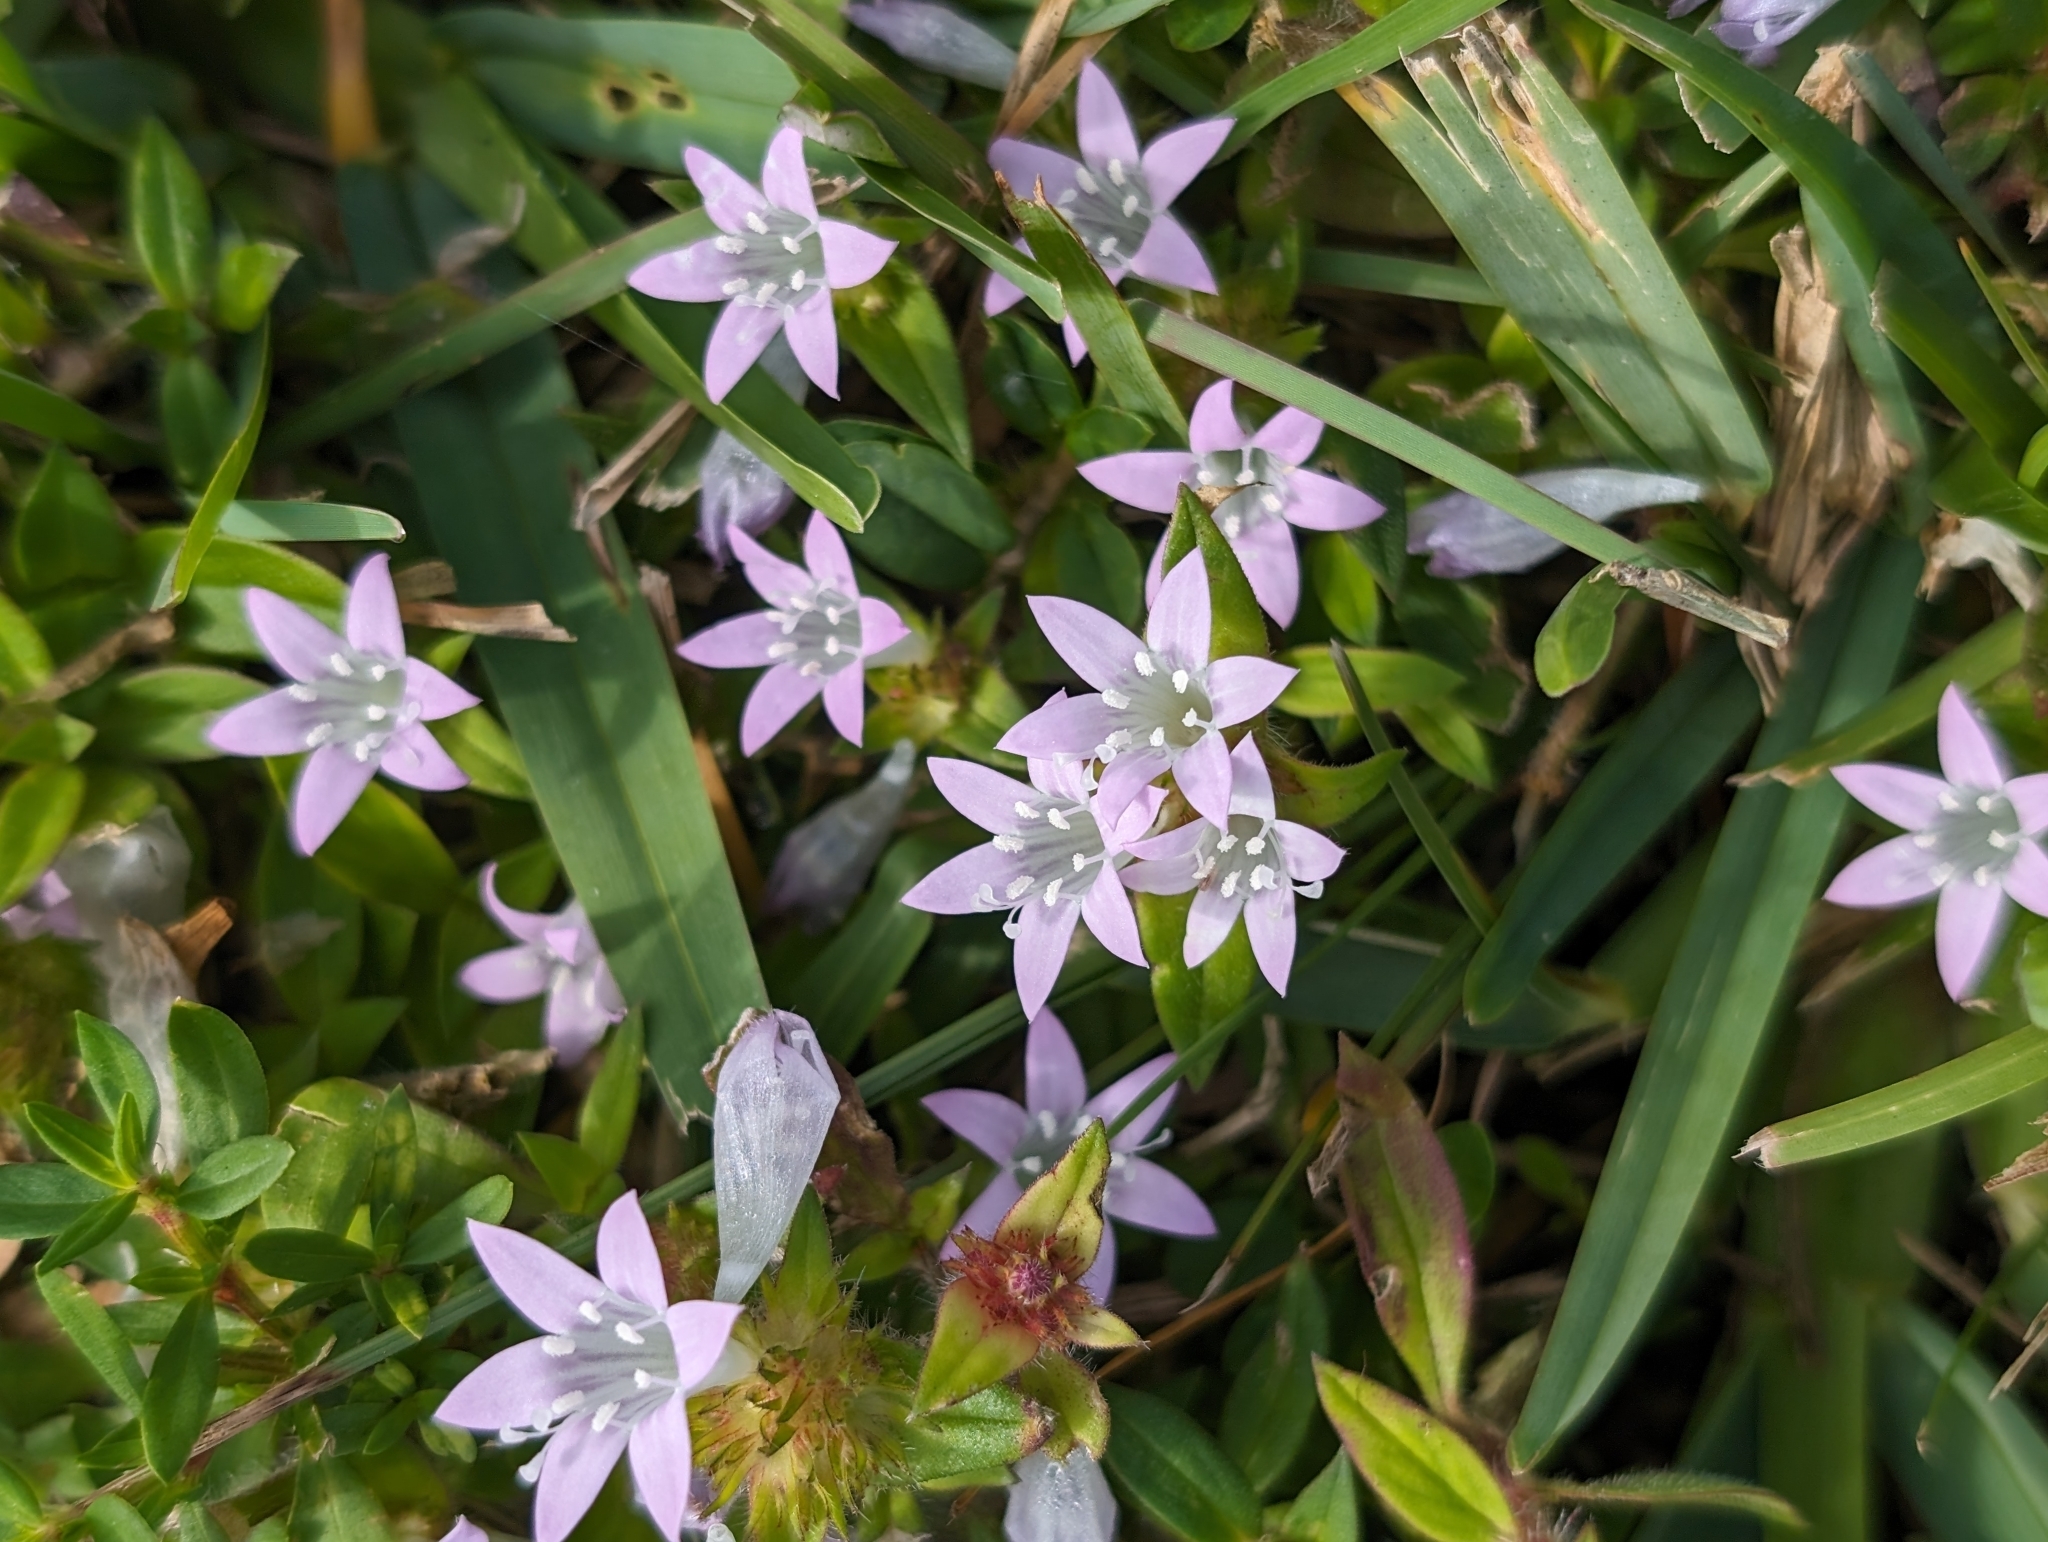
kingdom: Plantae
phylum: Tracheophyta
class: Magnoliopsida
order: Gentianales
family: Rubiaceae
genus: Richardia
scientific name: Richardia grandiflora
